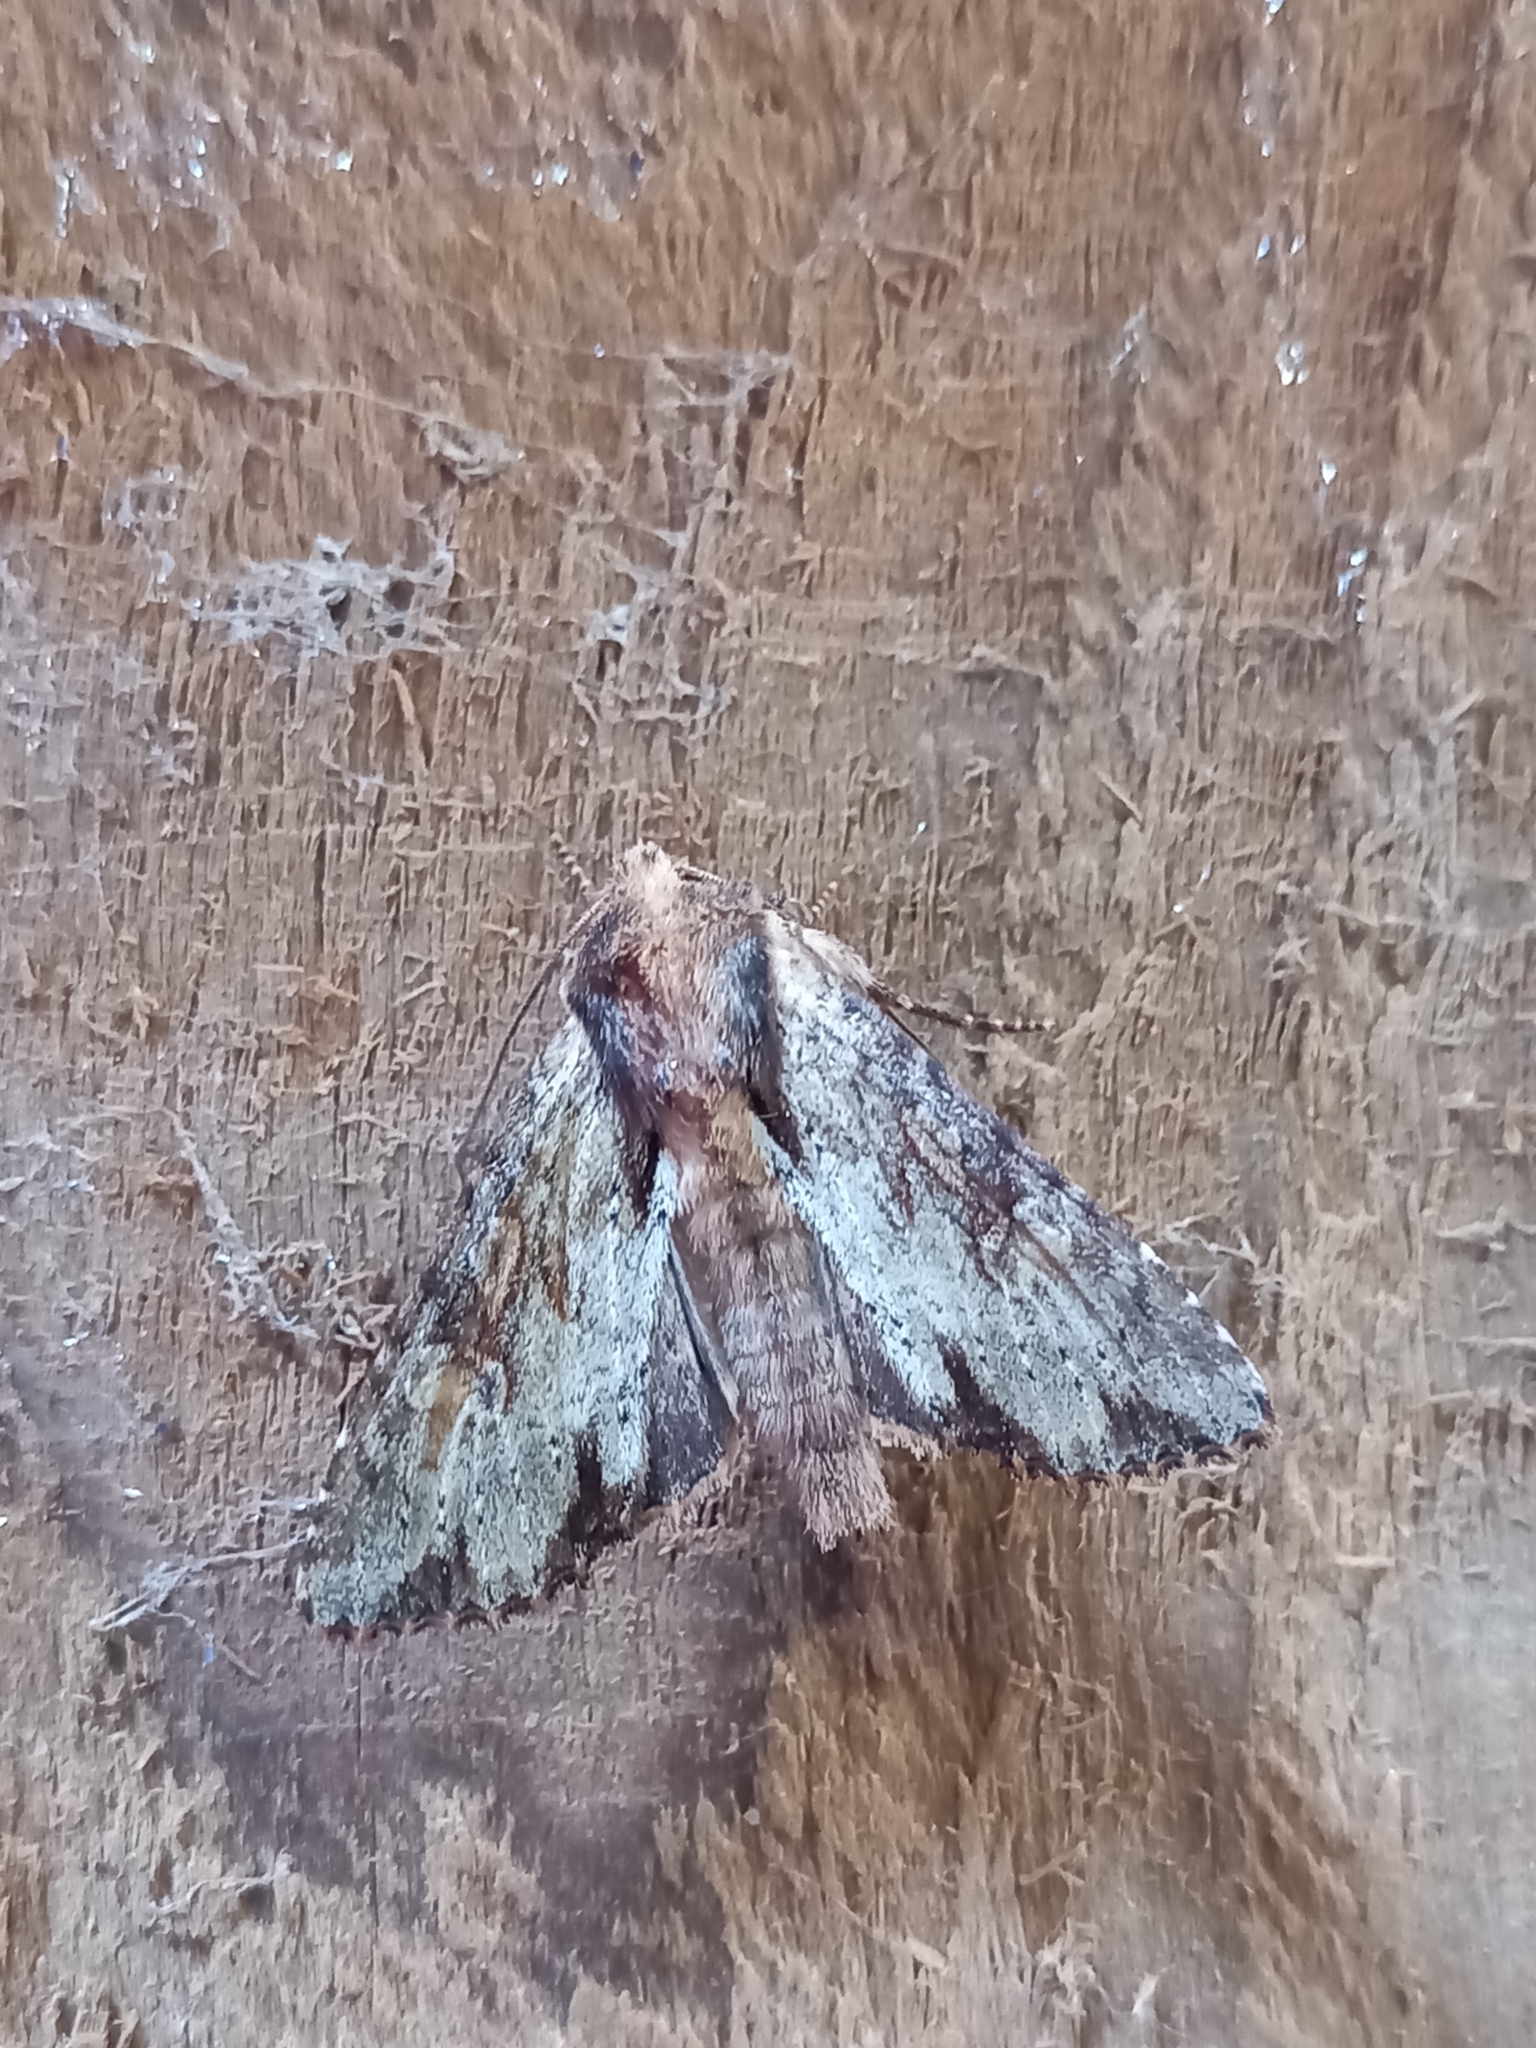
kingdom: Animalia
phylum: Arthropoda
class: Insecta
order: Lepidoptera
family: Noctuidae
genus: Apamea
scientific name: Apamea crenata
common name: Clouded-bordered brindle
